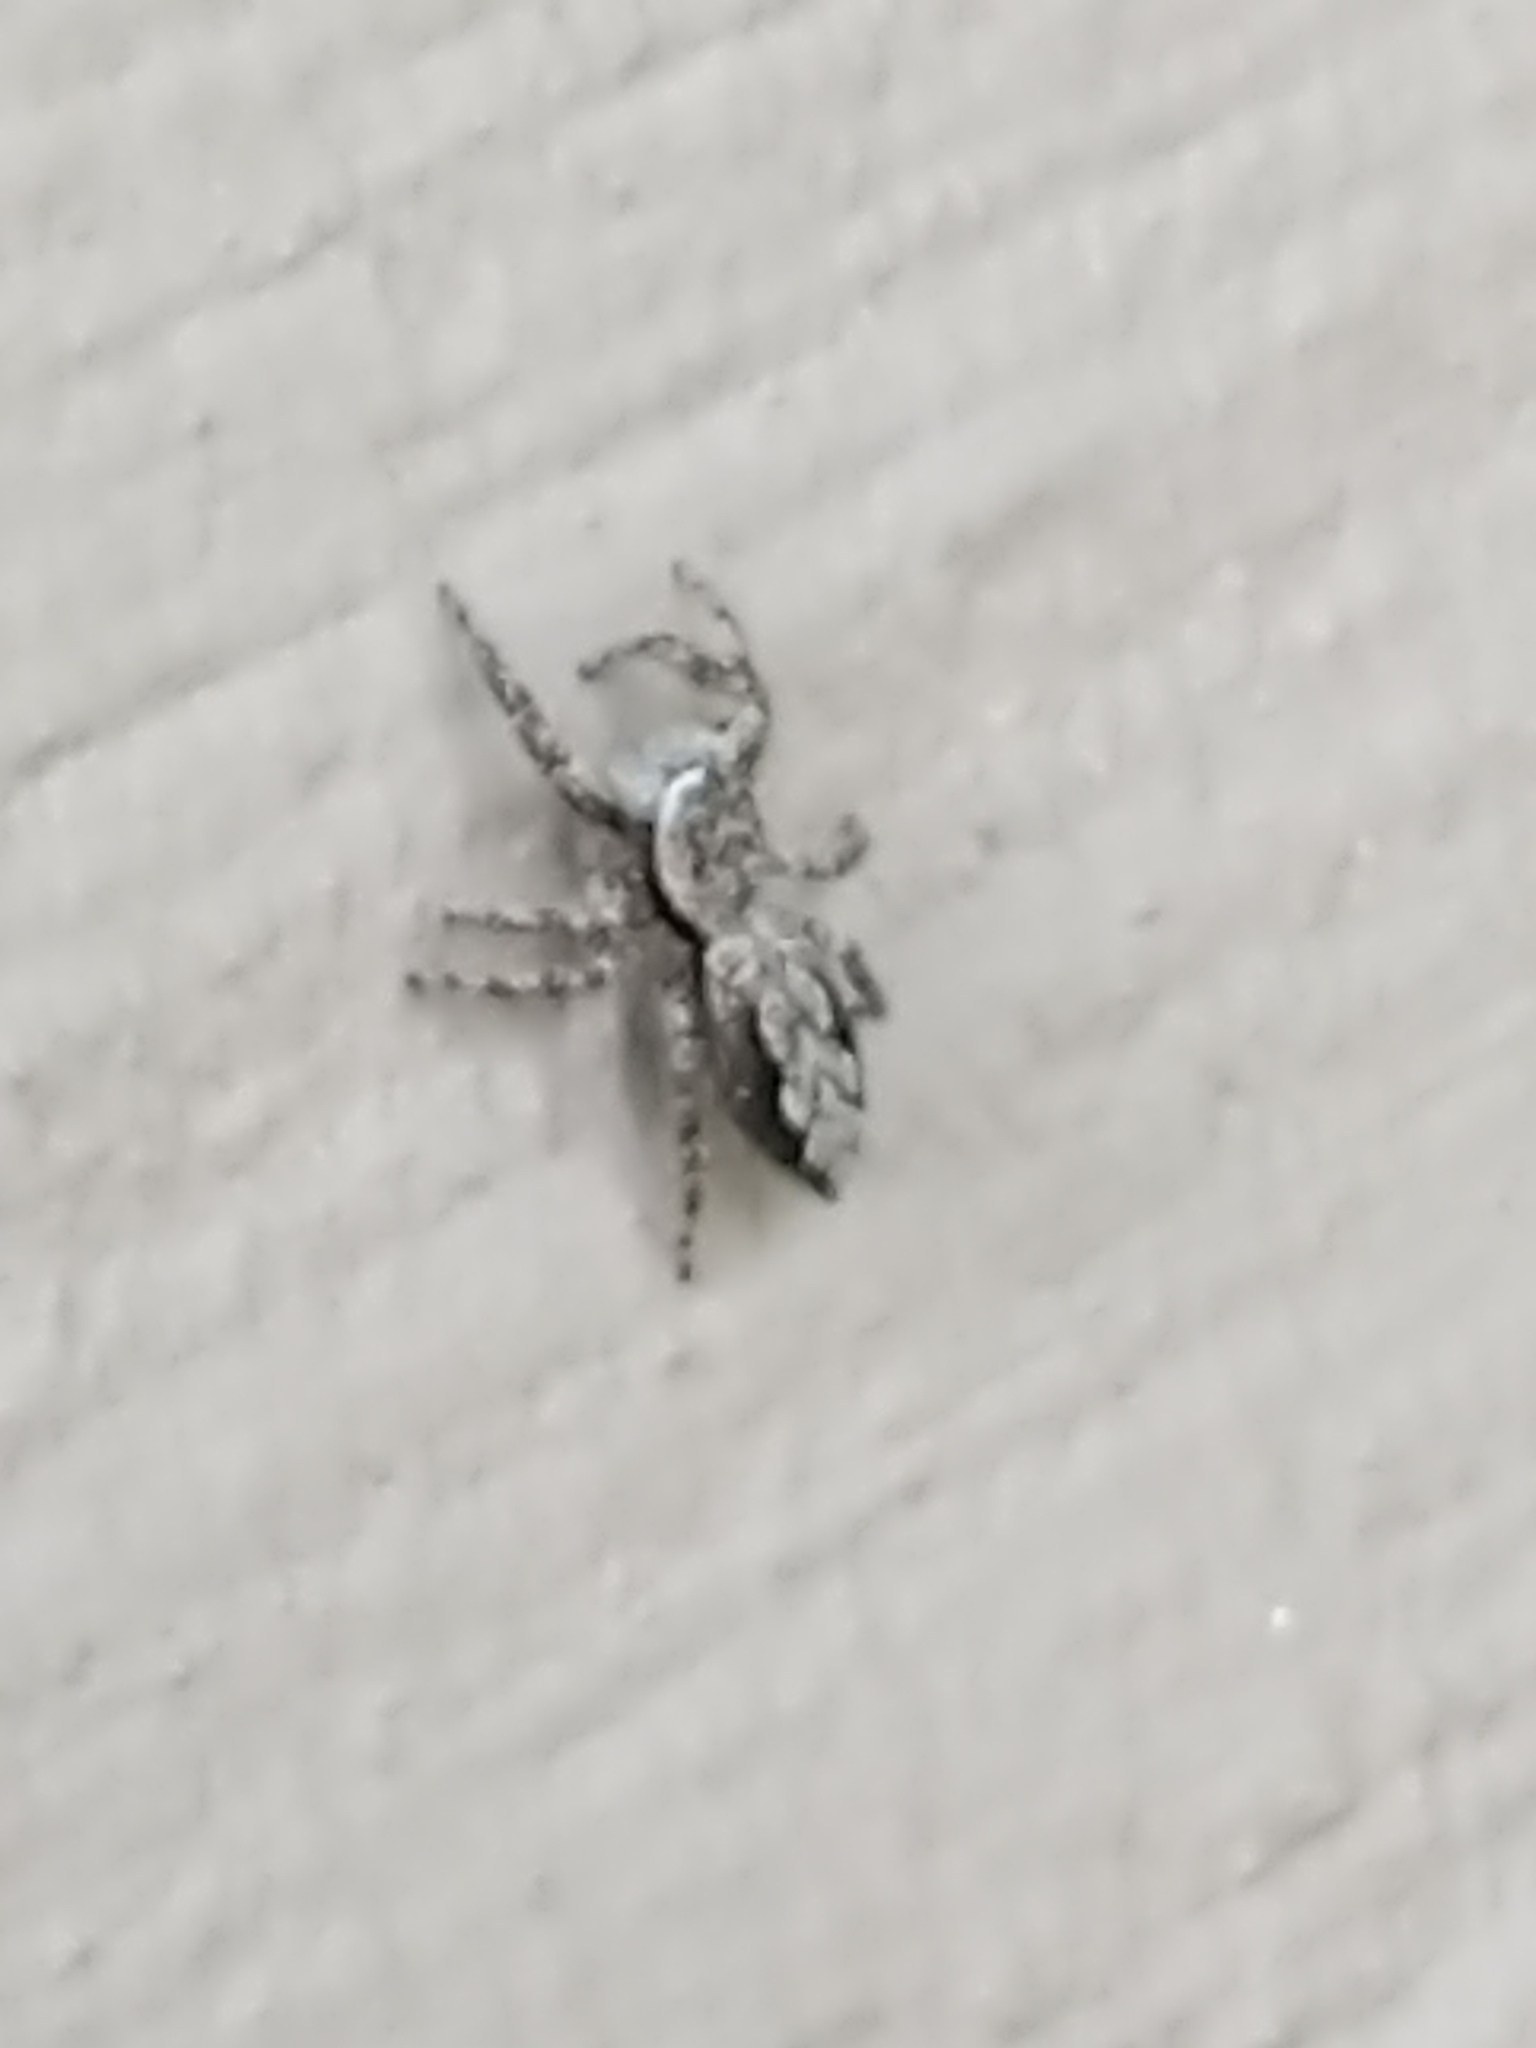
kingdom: Animalia
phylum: Arthropoda
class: Arachnida
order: Araneae
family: Salticidae
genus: Platycryptus
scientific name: Platycryptus undatus
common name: Tan jumping spider
